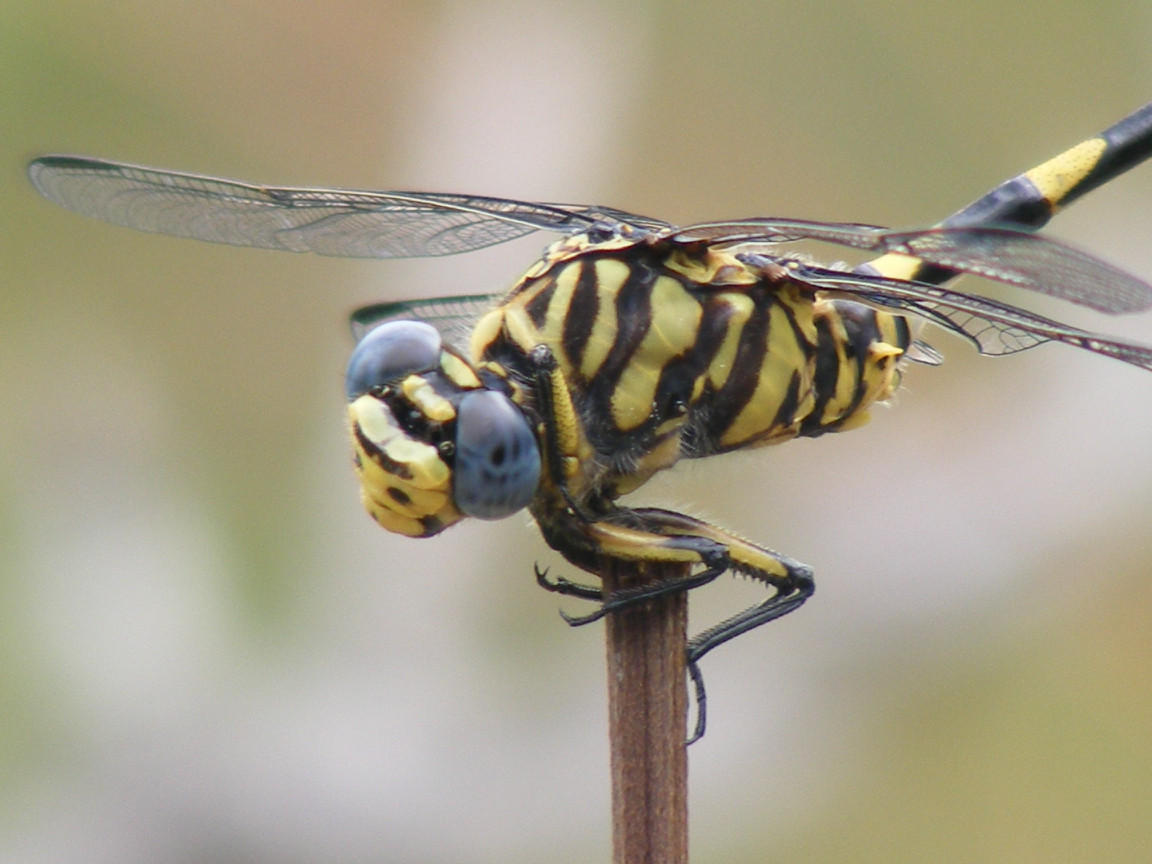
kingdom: Animalia
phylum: Arthropoda
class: Insecta
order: Odonata
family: Gomphidae
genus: Ictinogomphus
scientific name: Ictinogomphus ferox
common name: Common tiger
